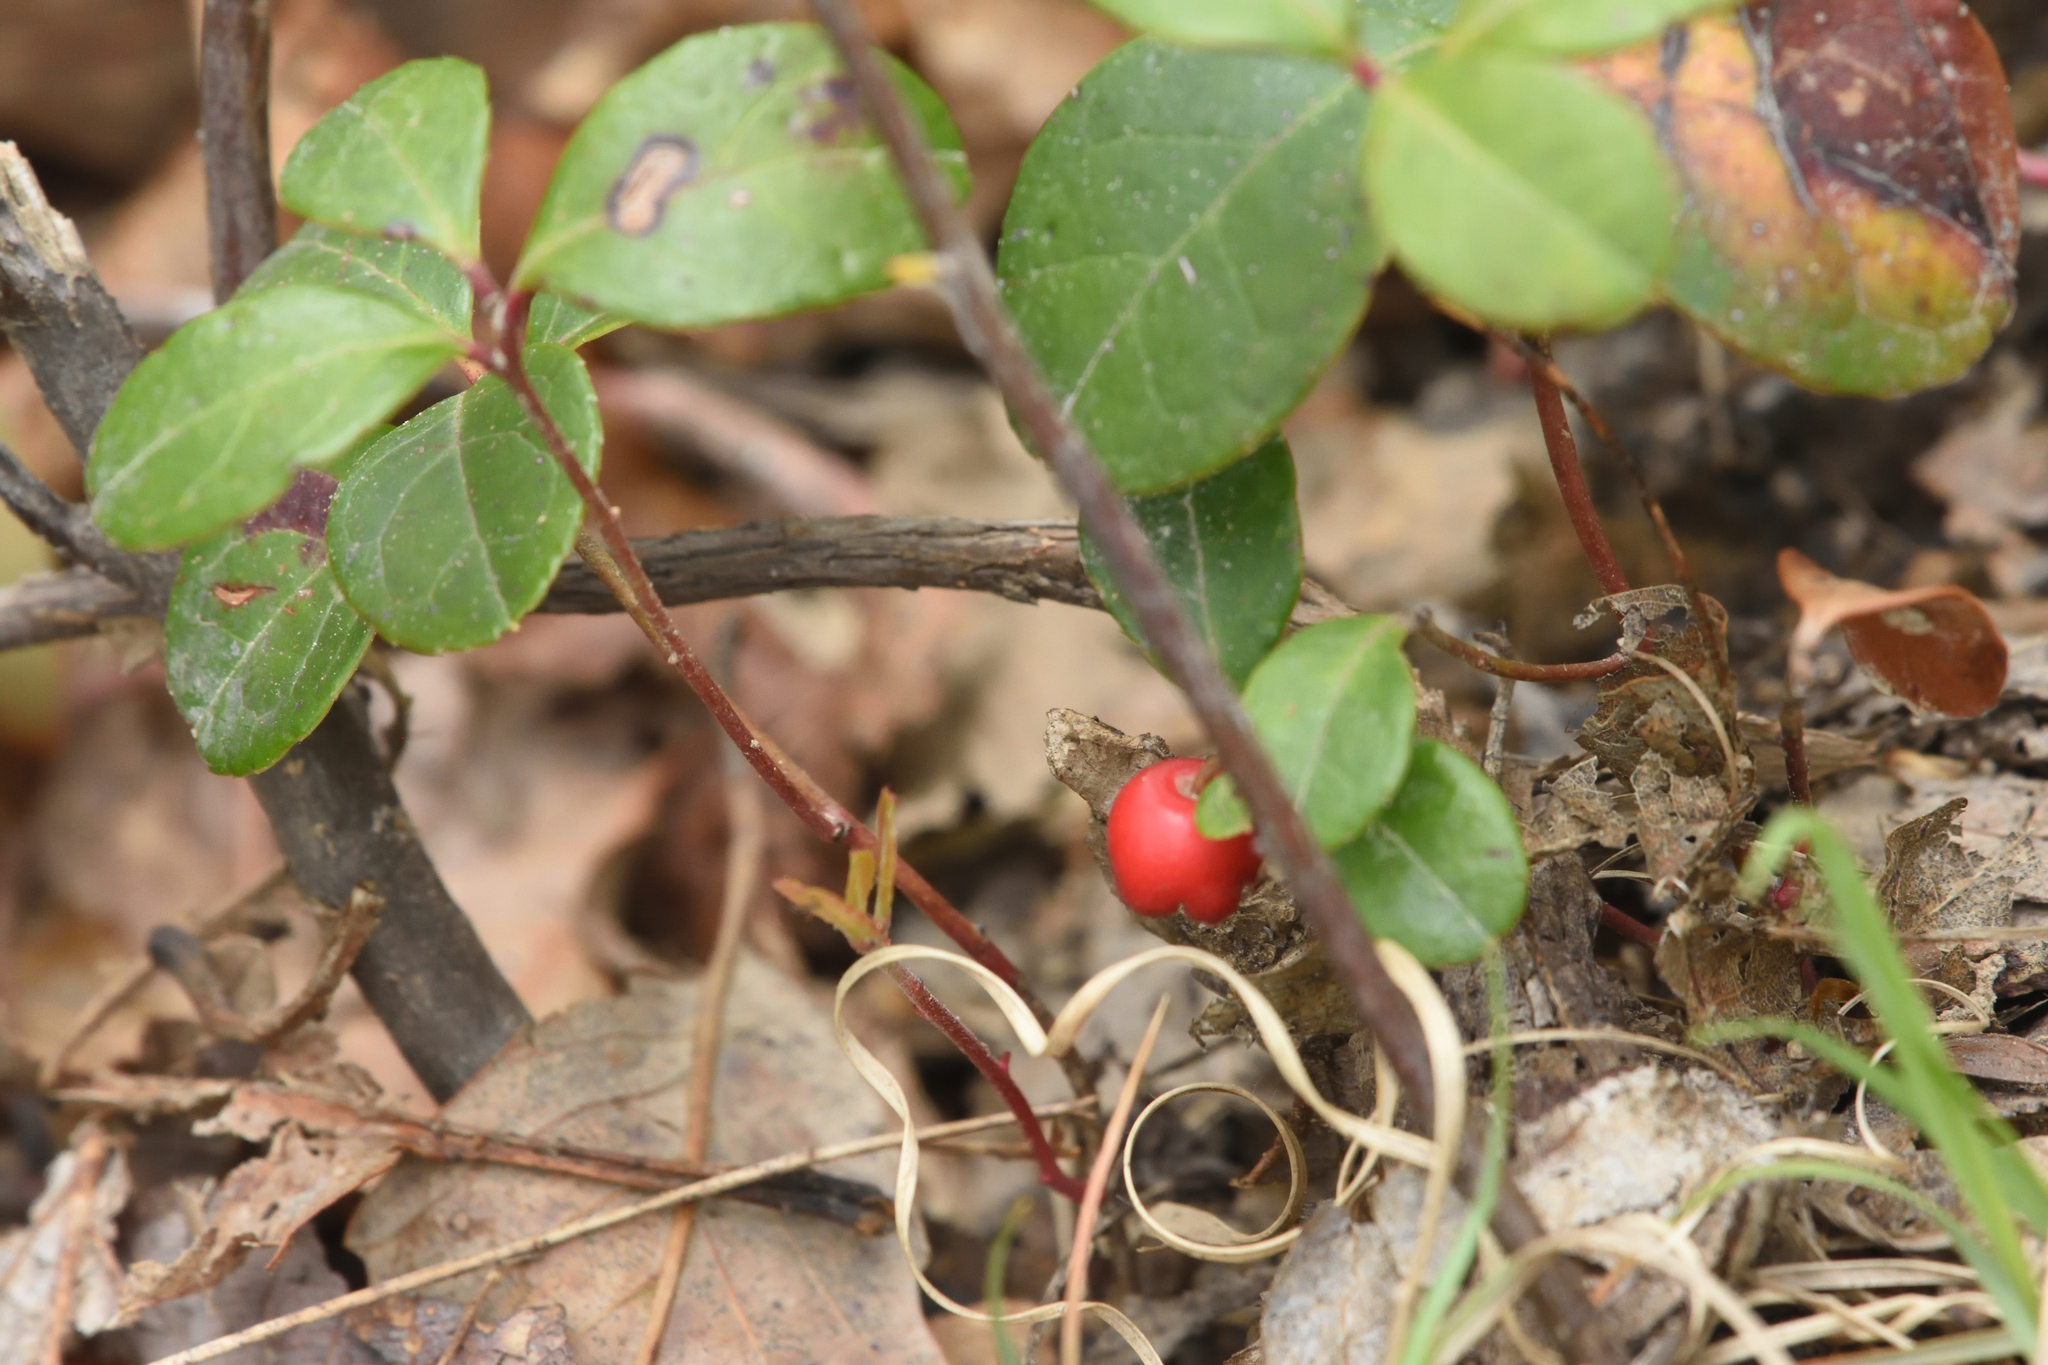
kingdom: Plantae
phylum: Tracheophyta
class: Magnoliopsida
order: Ericales
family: Ericaceae
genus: Gaultheria
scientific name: Gaultheria procumbens
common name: Checkerberry
